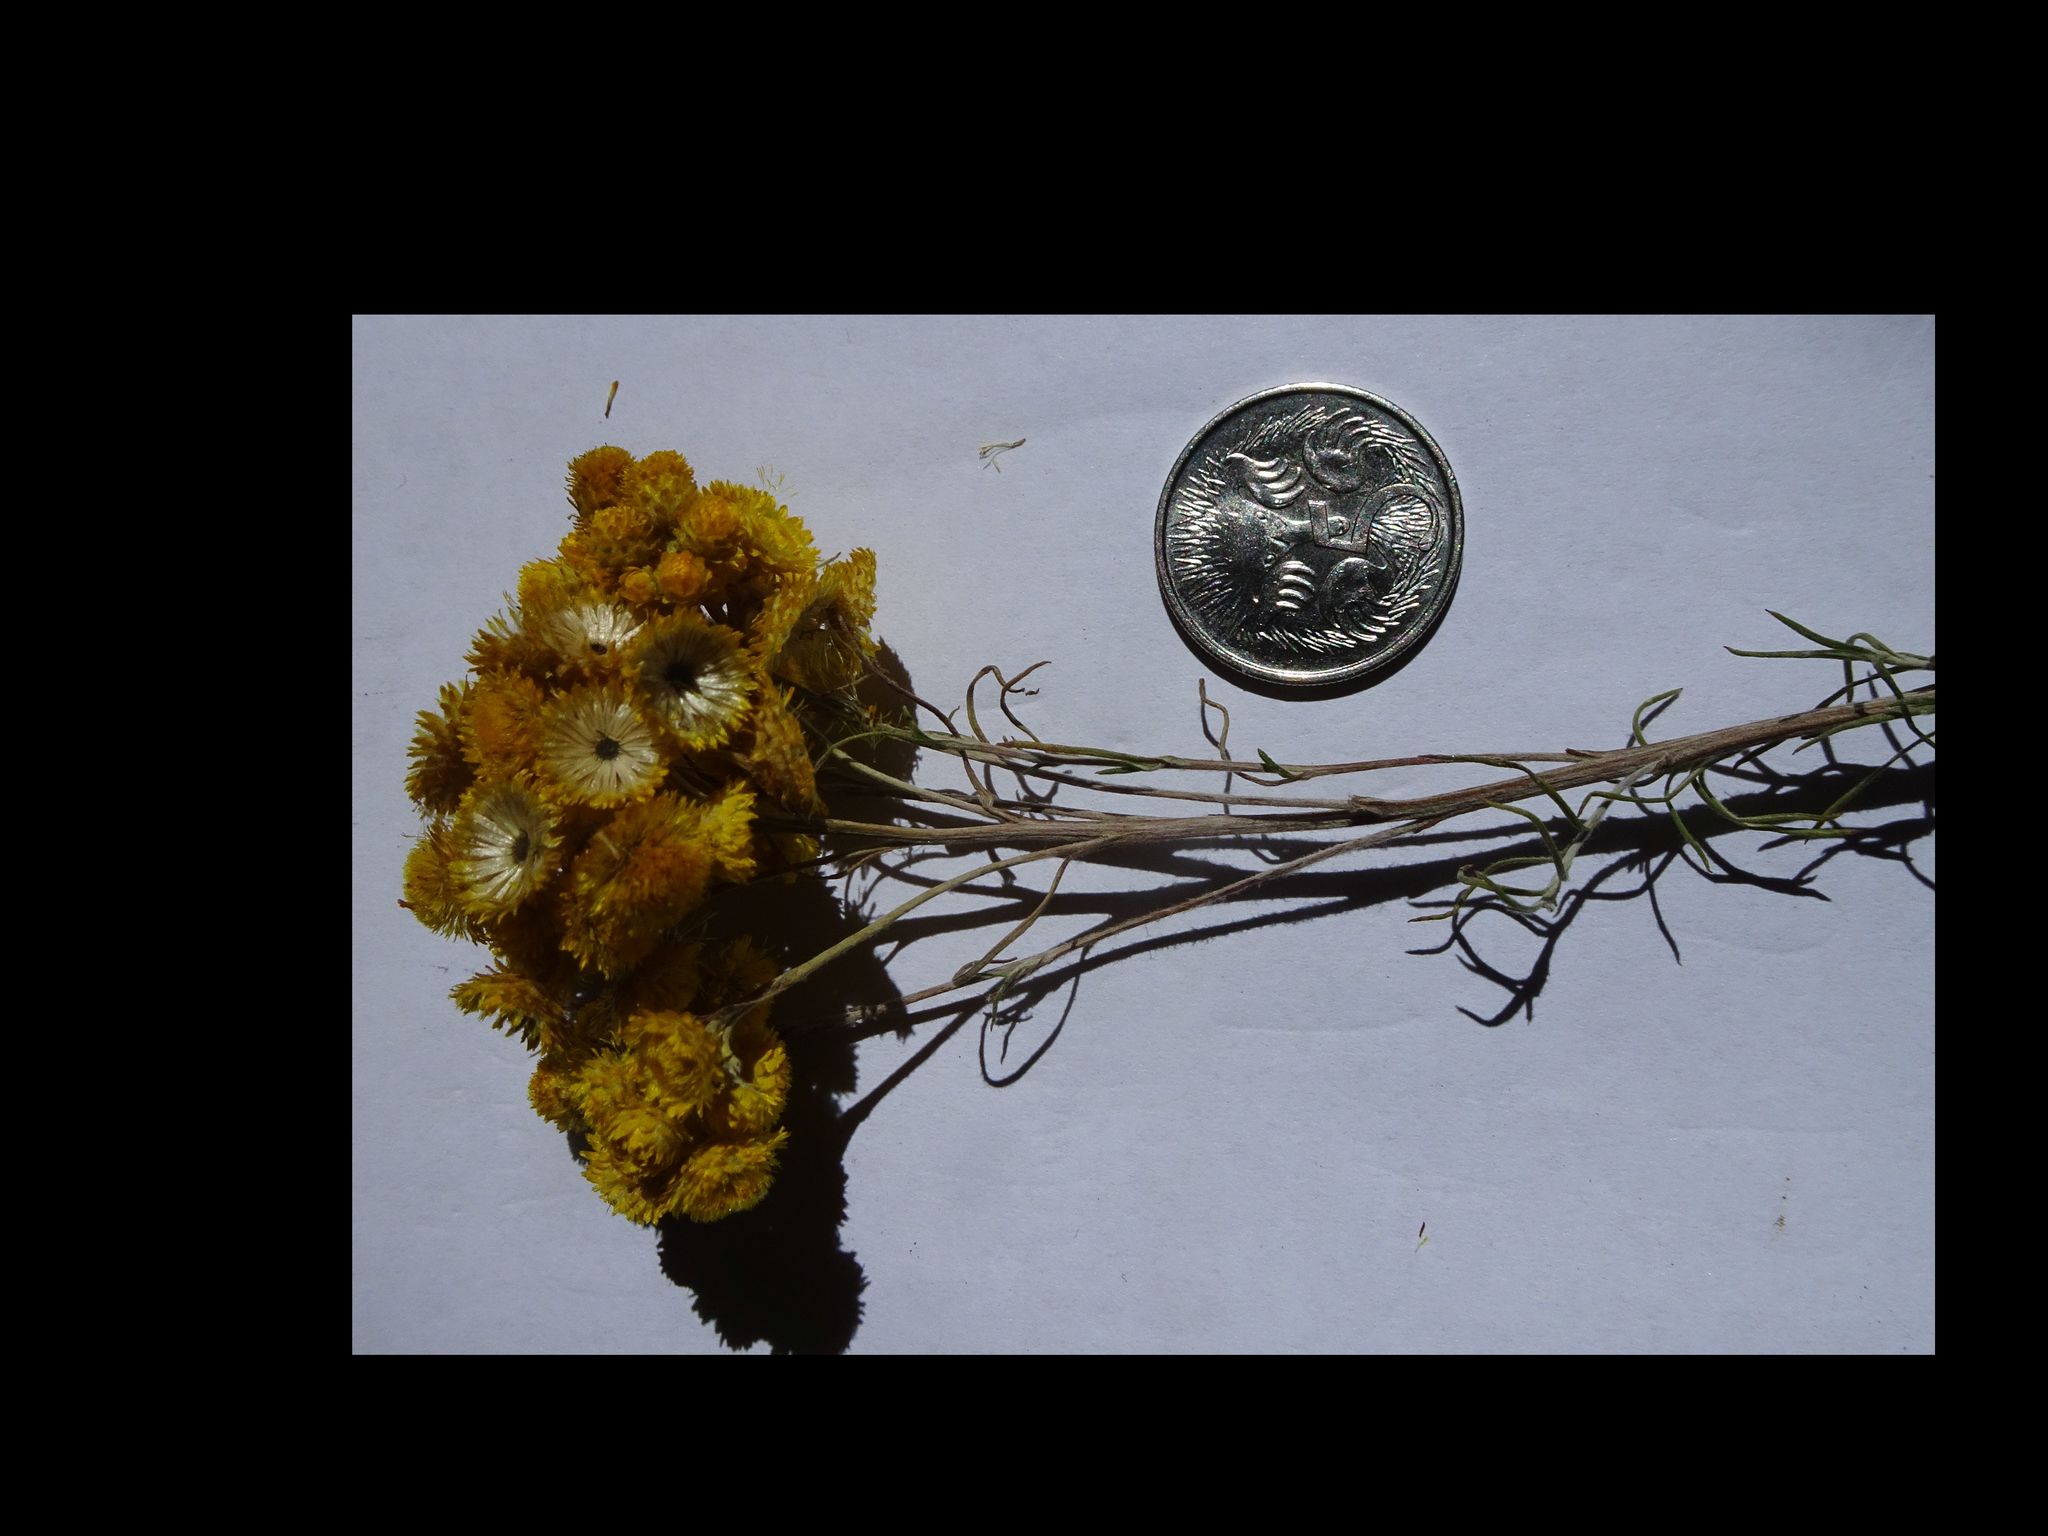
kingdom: Plantae
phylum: Tracheophyta
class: Magnoliopsida
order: Asterales
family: Asteraceae
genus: Chrysocephalum
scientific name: Chrysocephalum semipapposum
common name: Clustered everlasting
